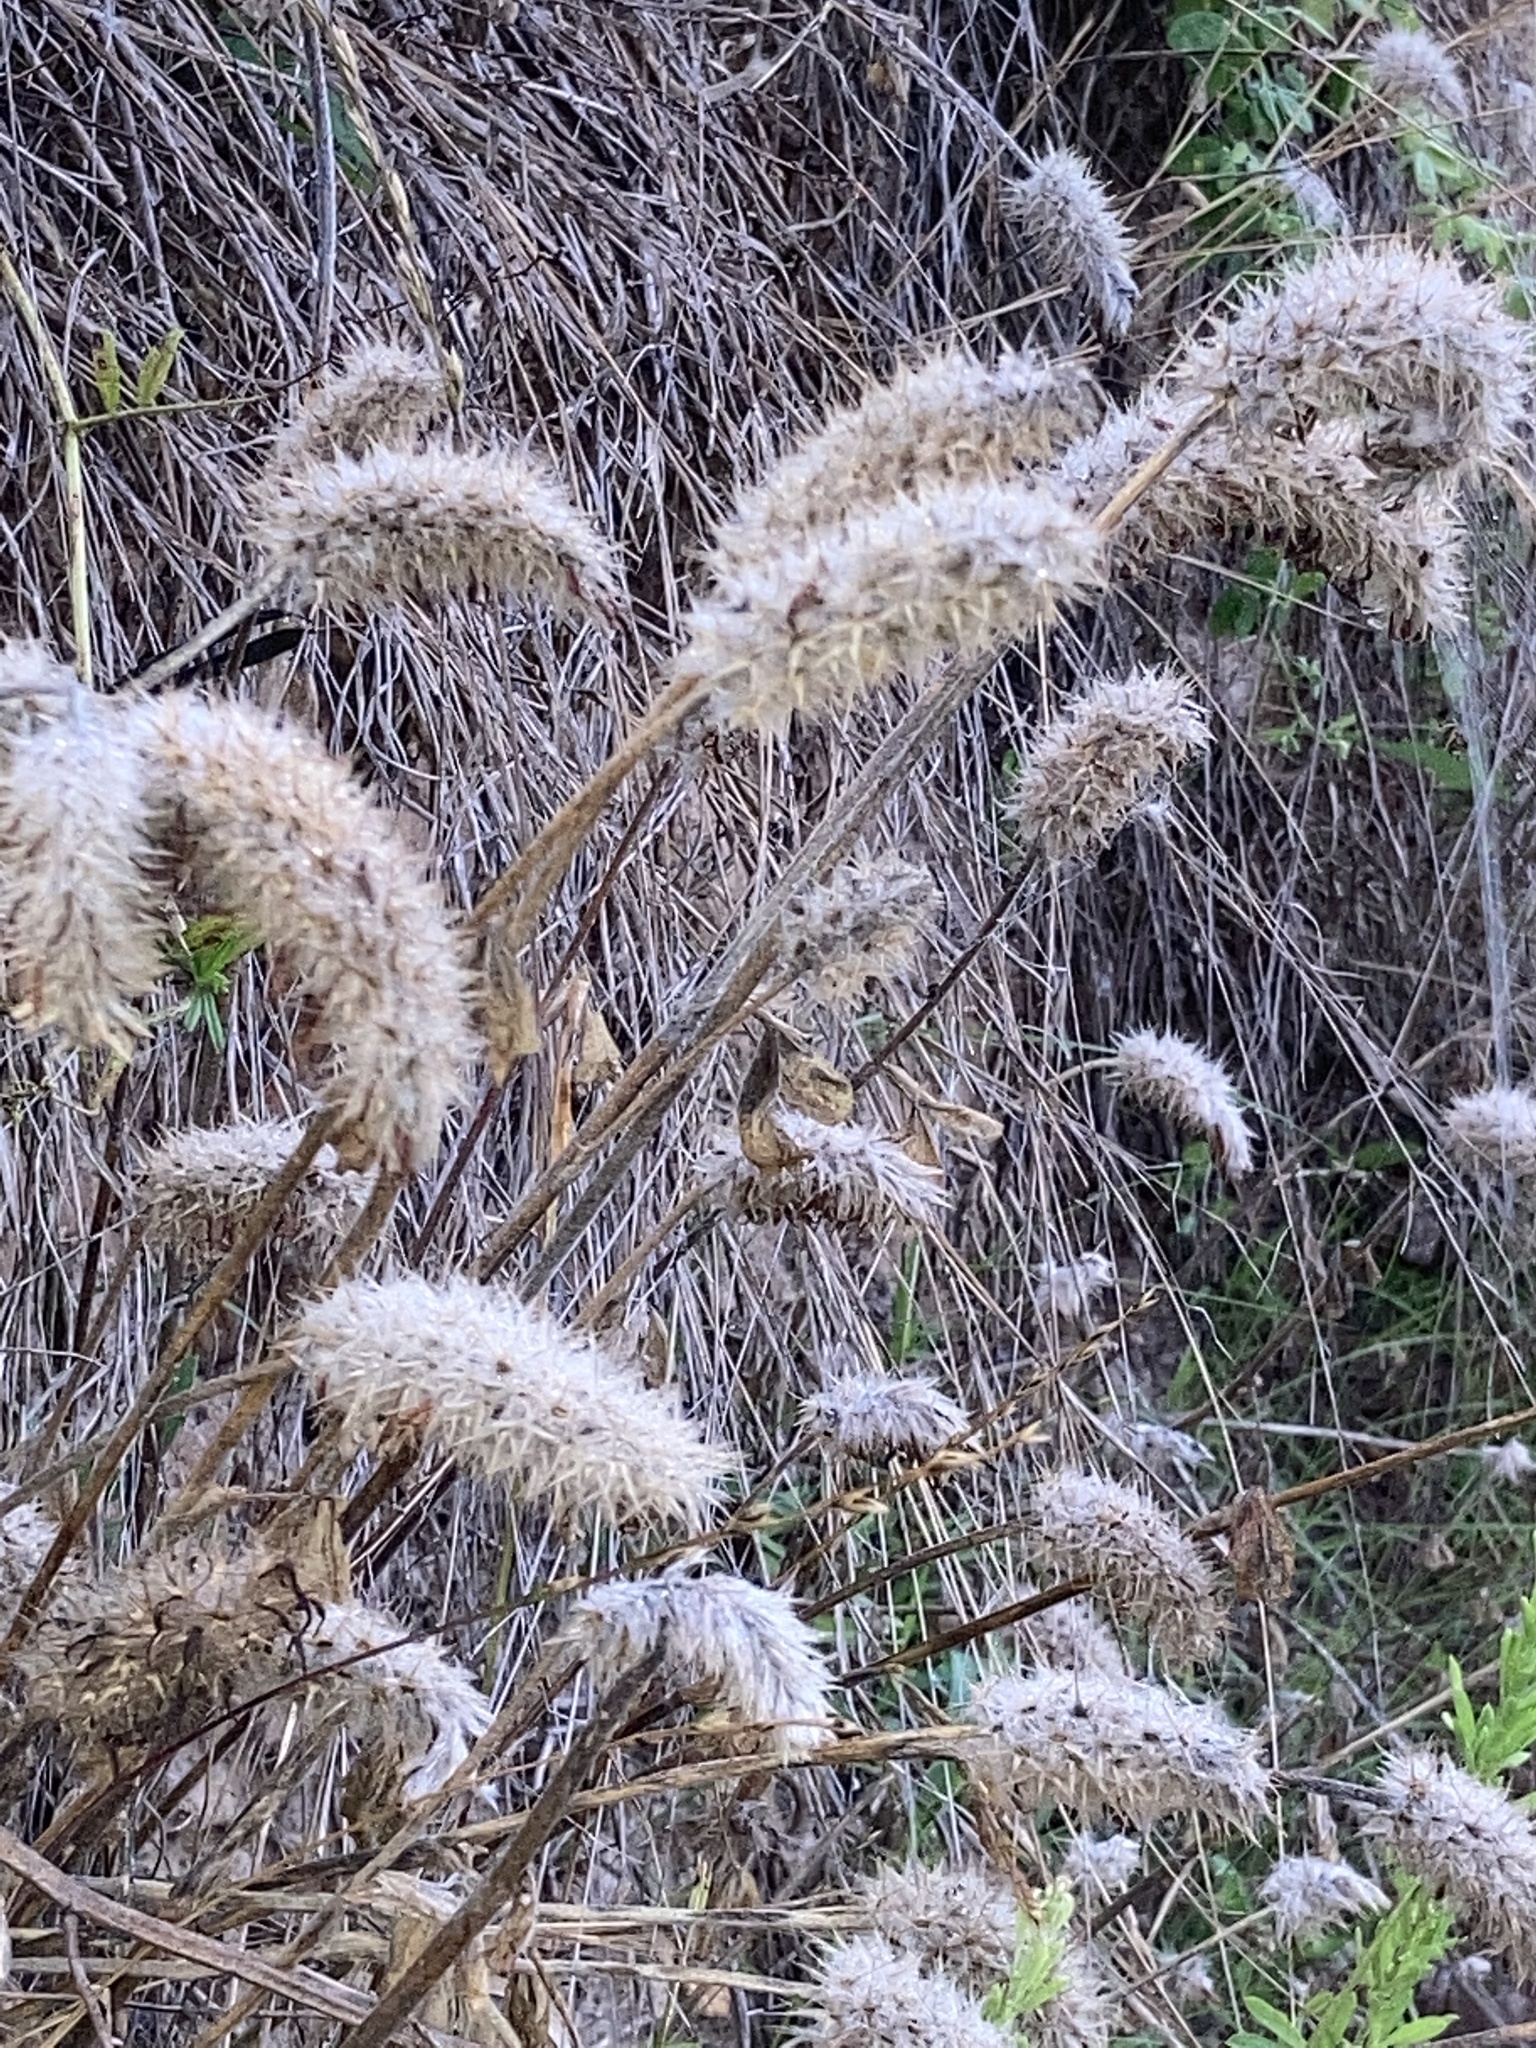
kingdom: Plantae
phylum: Tracheophyta
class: Magnoliopsida
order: Fabales
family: Fabaceae
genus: Trifolium
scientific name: Trifolium incarnatum
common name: Crimson clover
